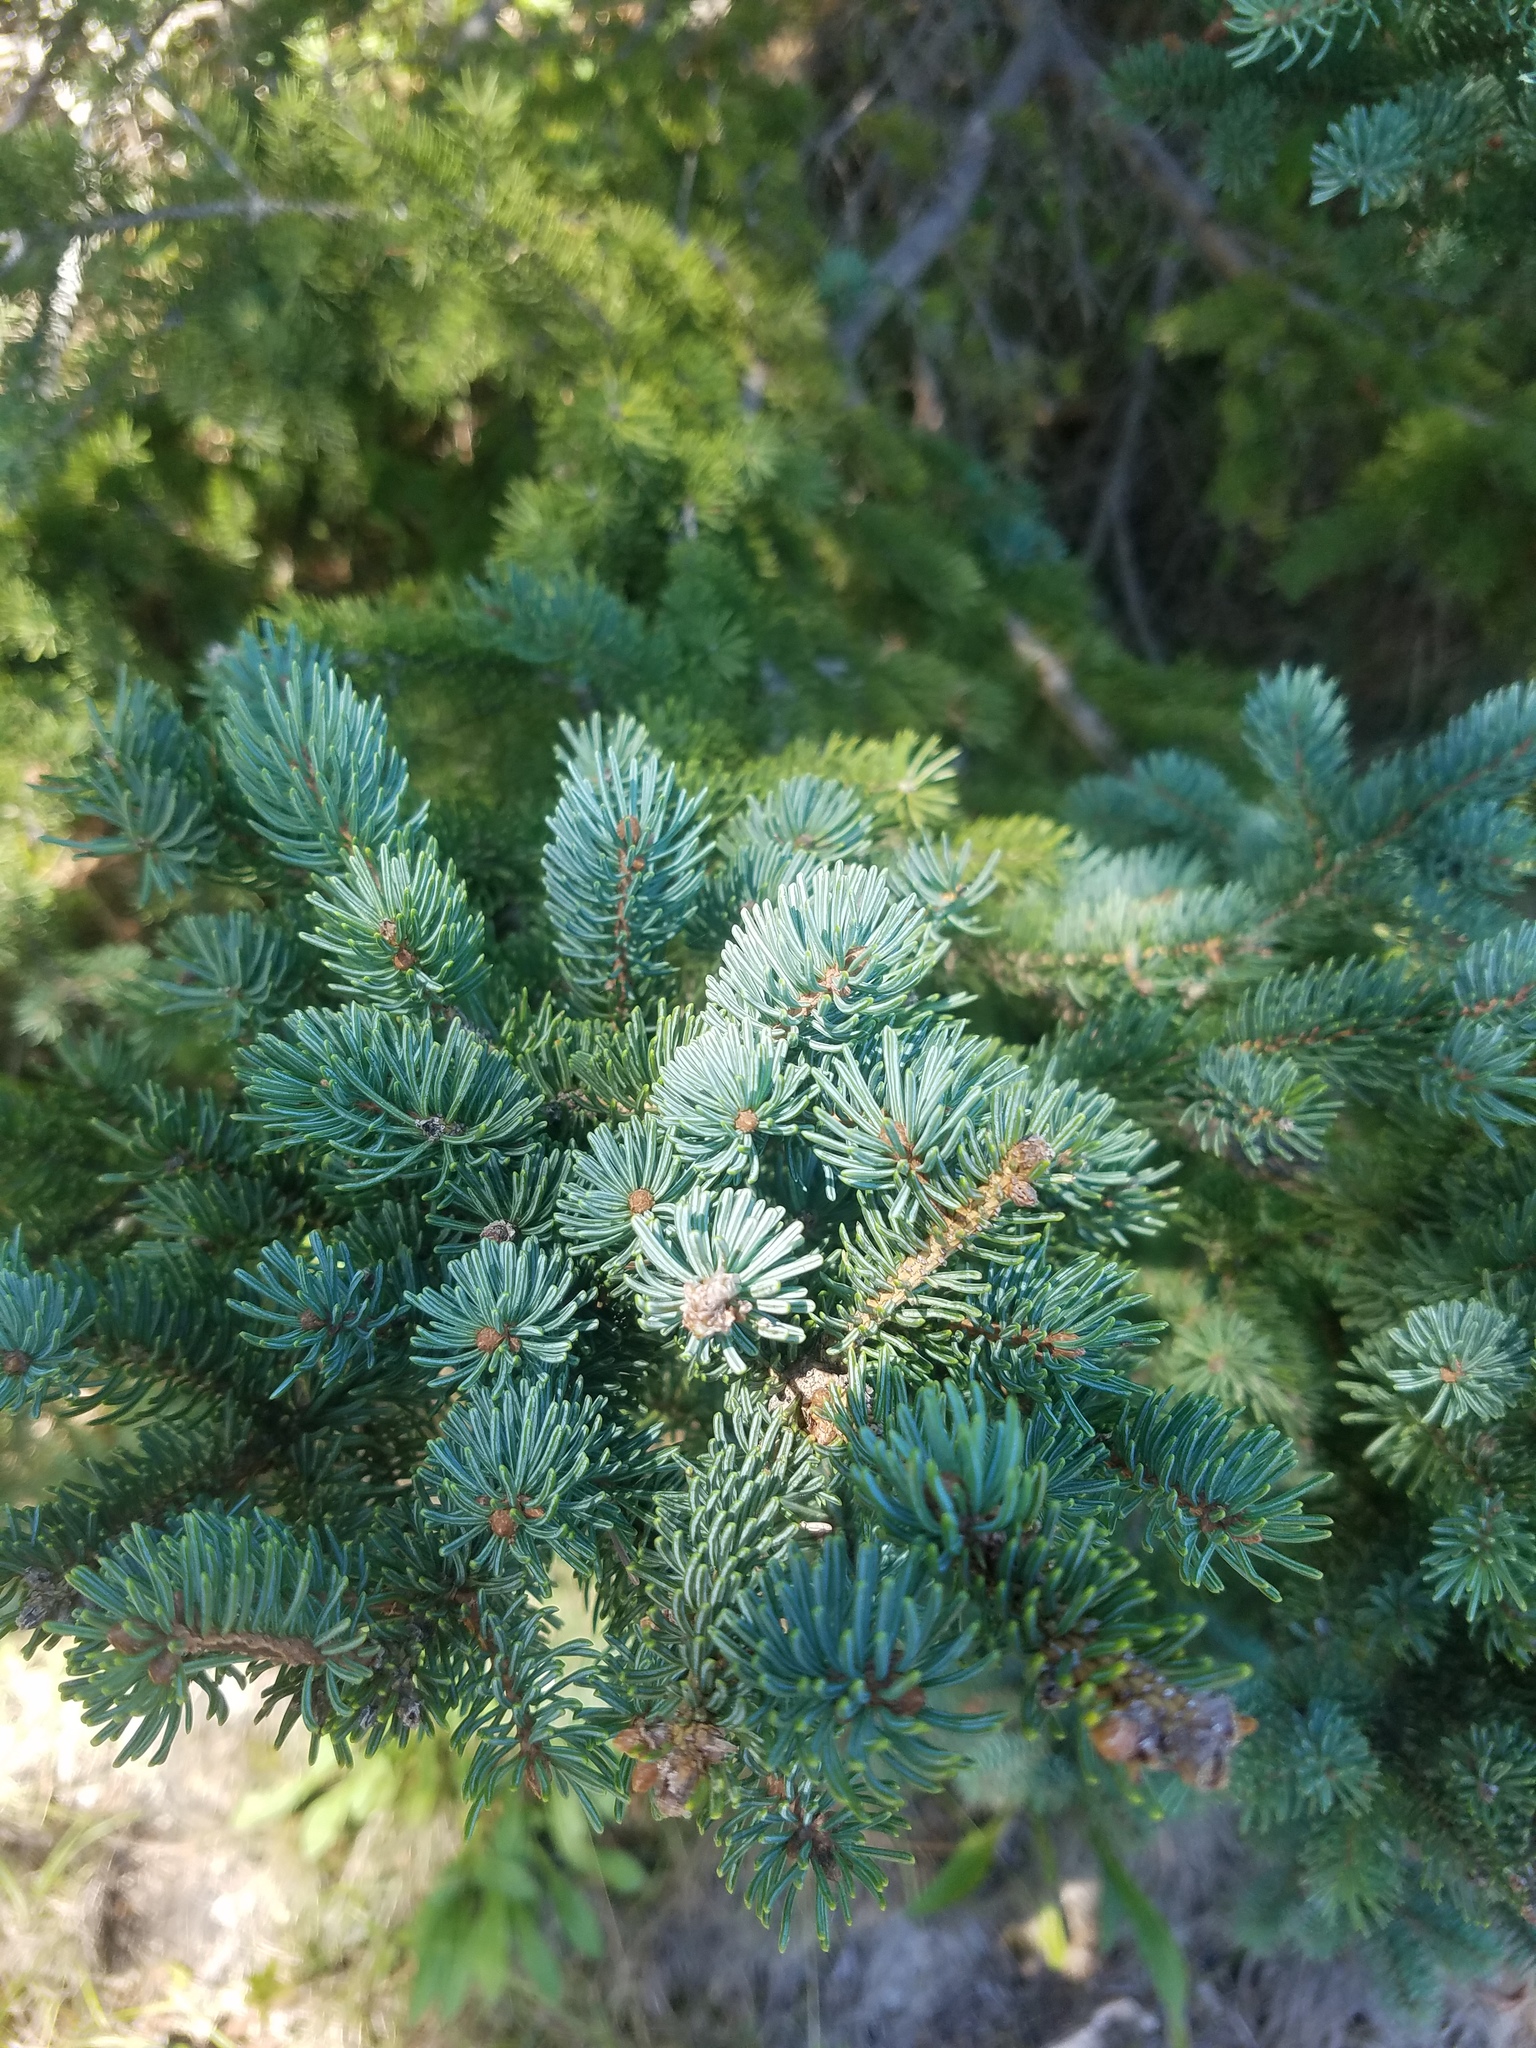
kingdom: Plantae
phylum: Tracheophyta
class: Pinopsida
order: Pinales
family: Pinaceae
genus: Picea
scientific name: Picea glauca
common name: White spruce
